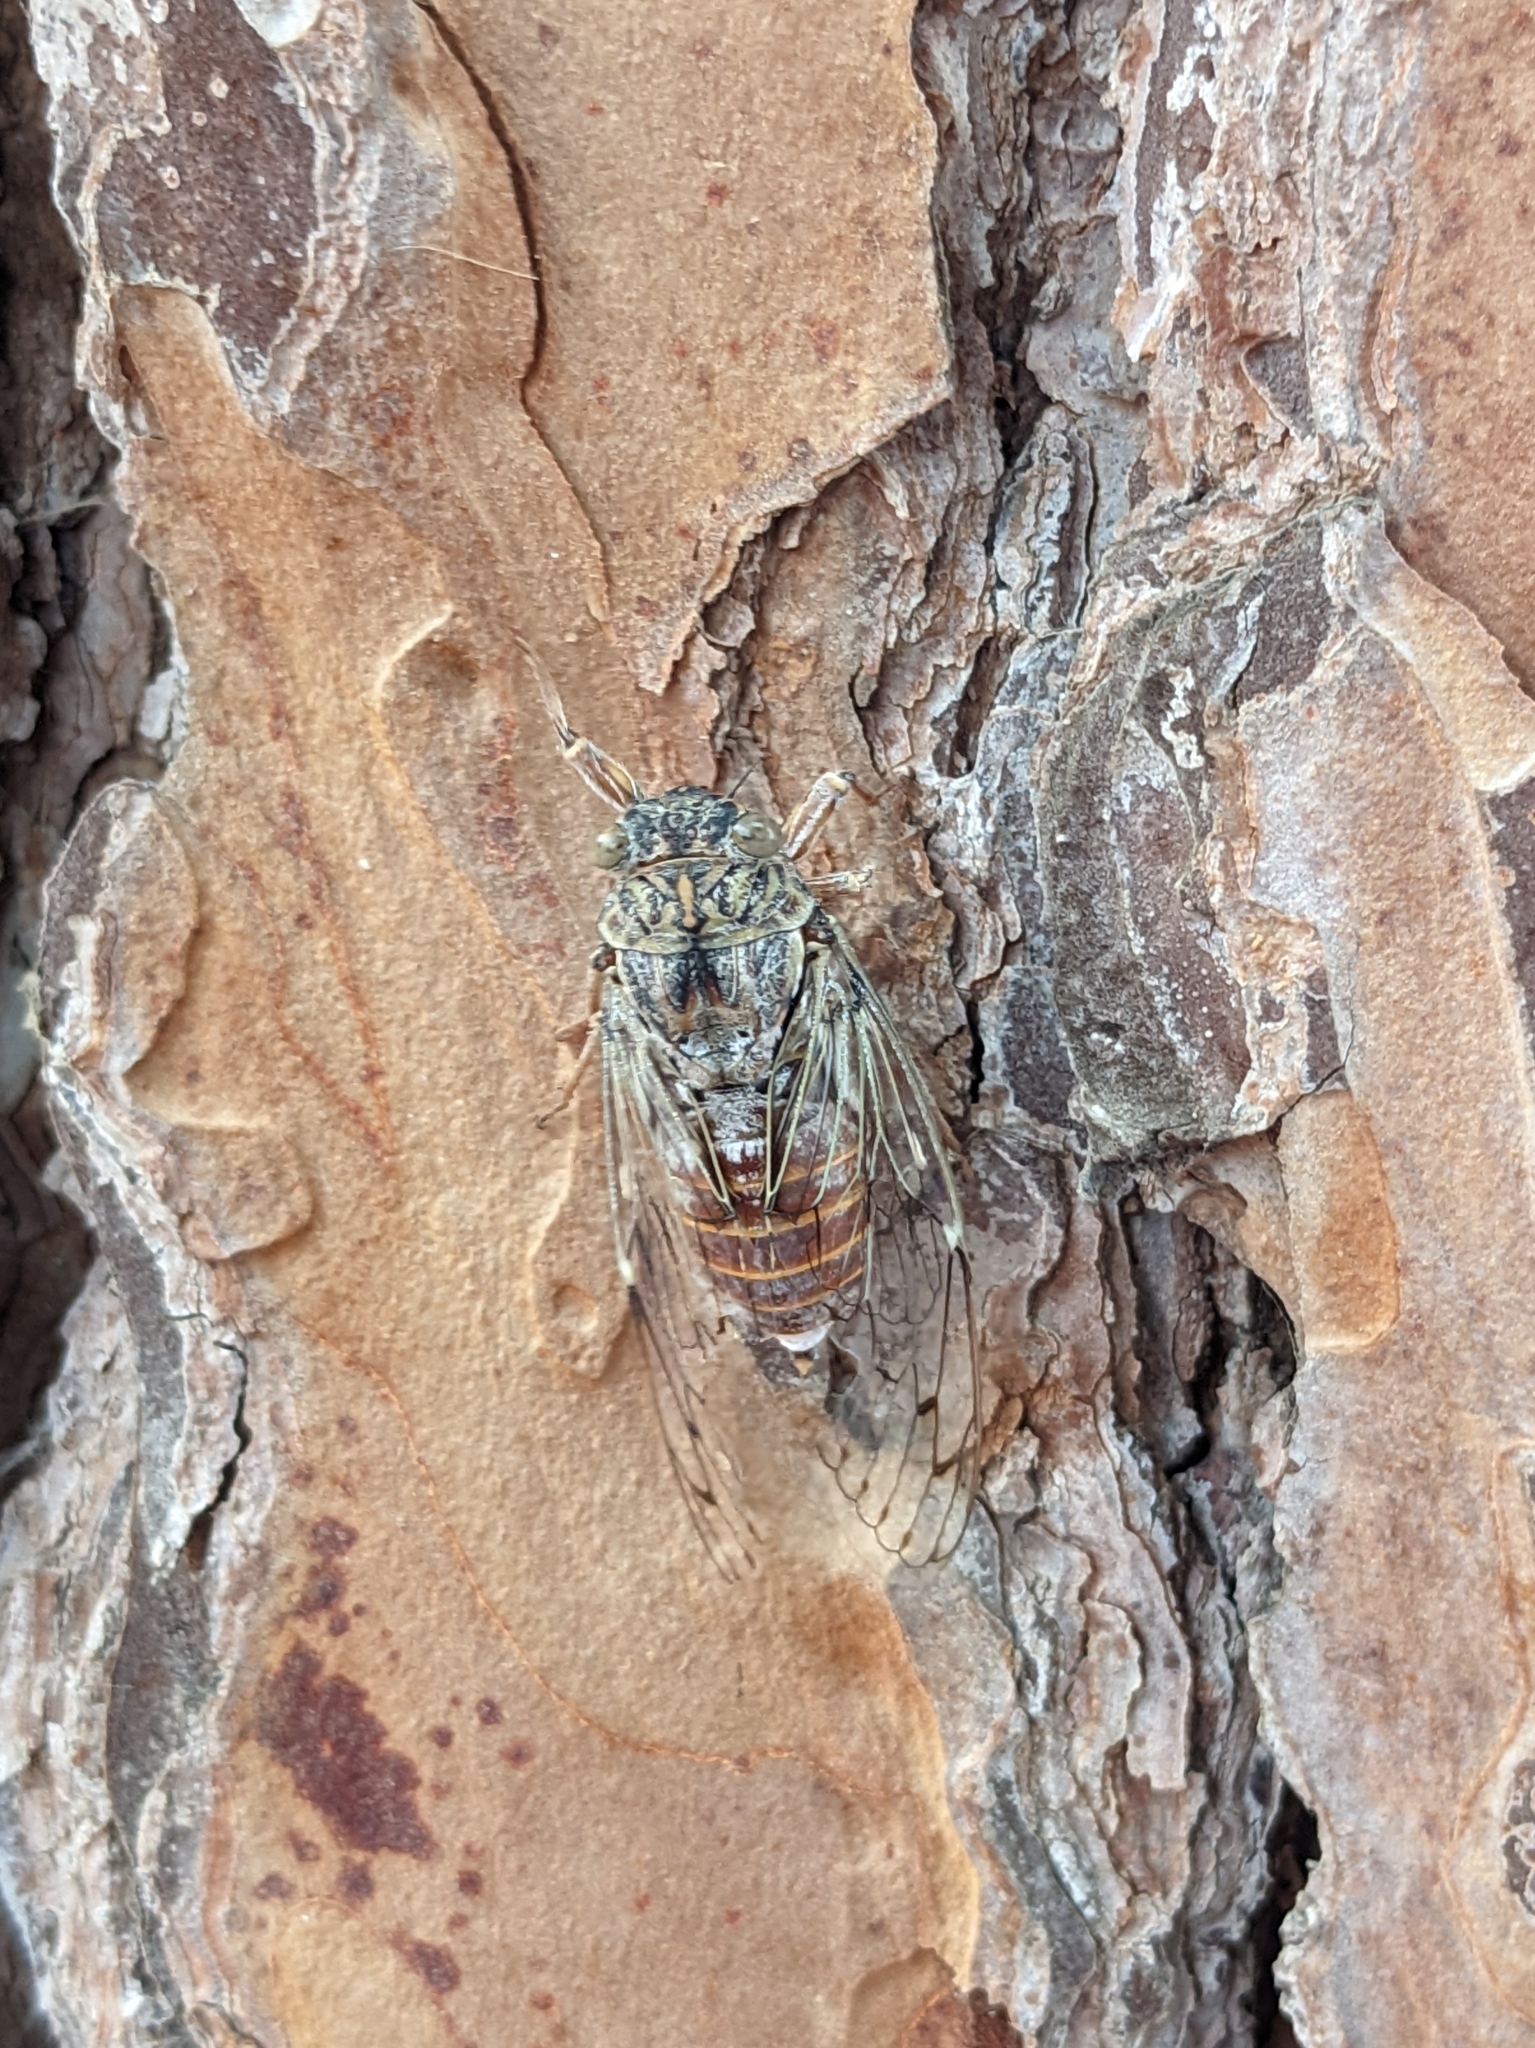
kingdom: Animalia
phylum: Arthropoda
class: Insecta
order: Hemiptera
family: Cicadidae
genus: Cicada
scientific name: Cicada orni
